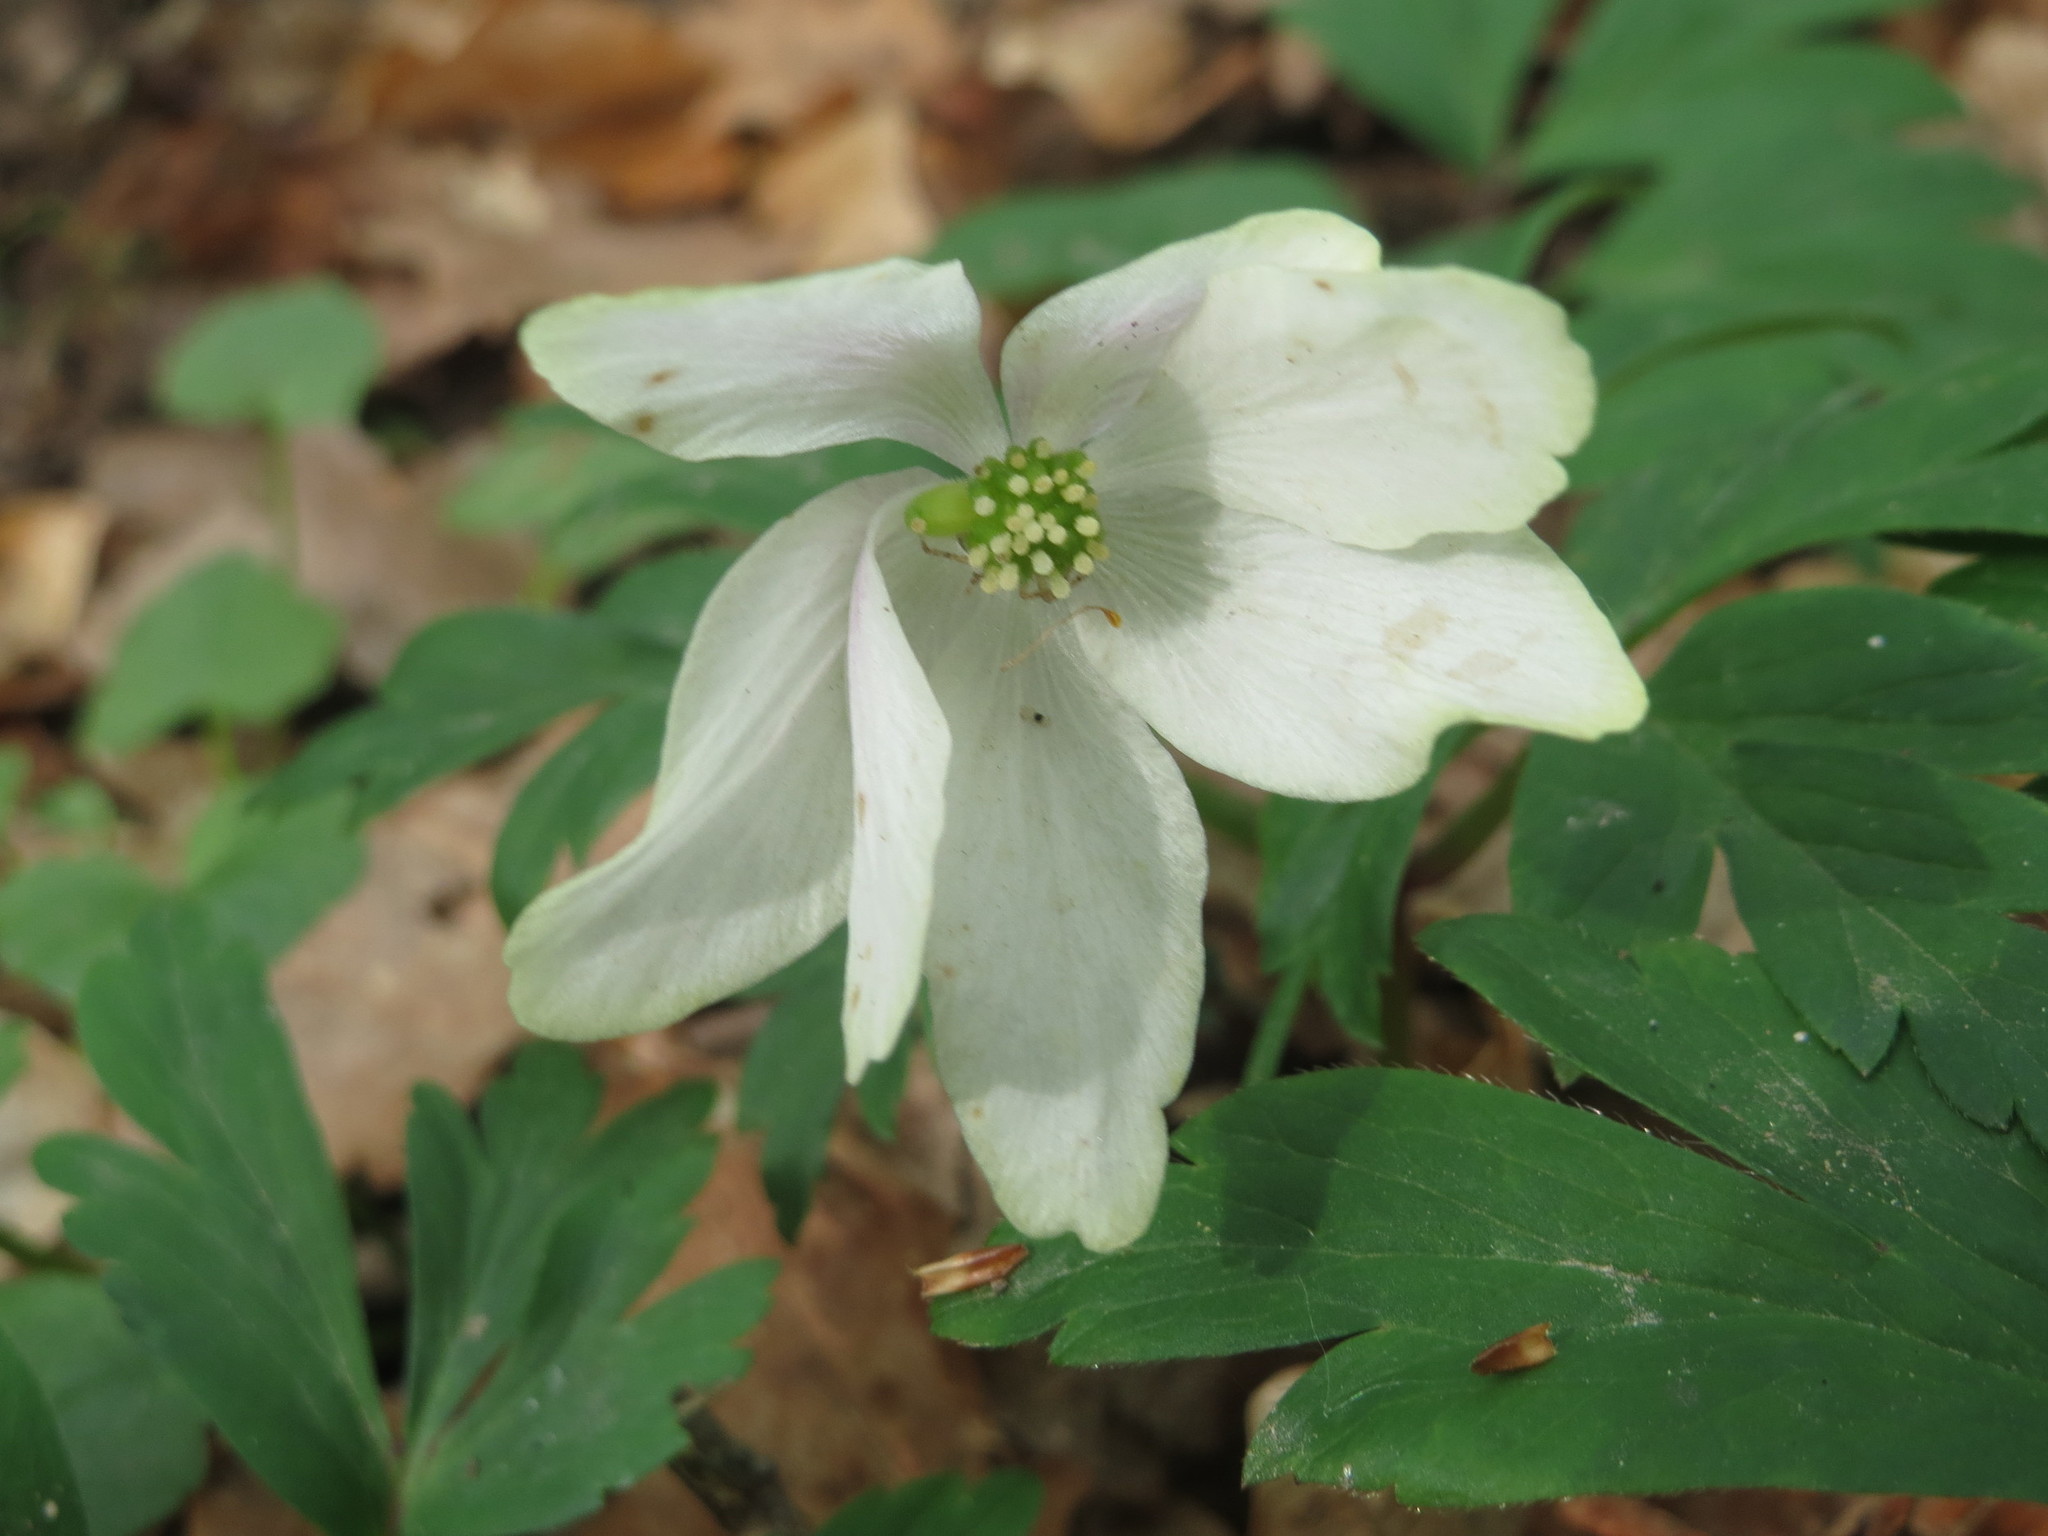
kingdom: Plantae
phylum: Tracheophyta
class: Magnoliopsida
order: Ranunculales
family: Ranunculaceae
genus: Anemone
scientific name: Anemone nemorosa
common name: Wood anemone
